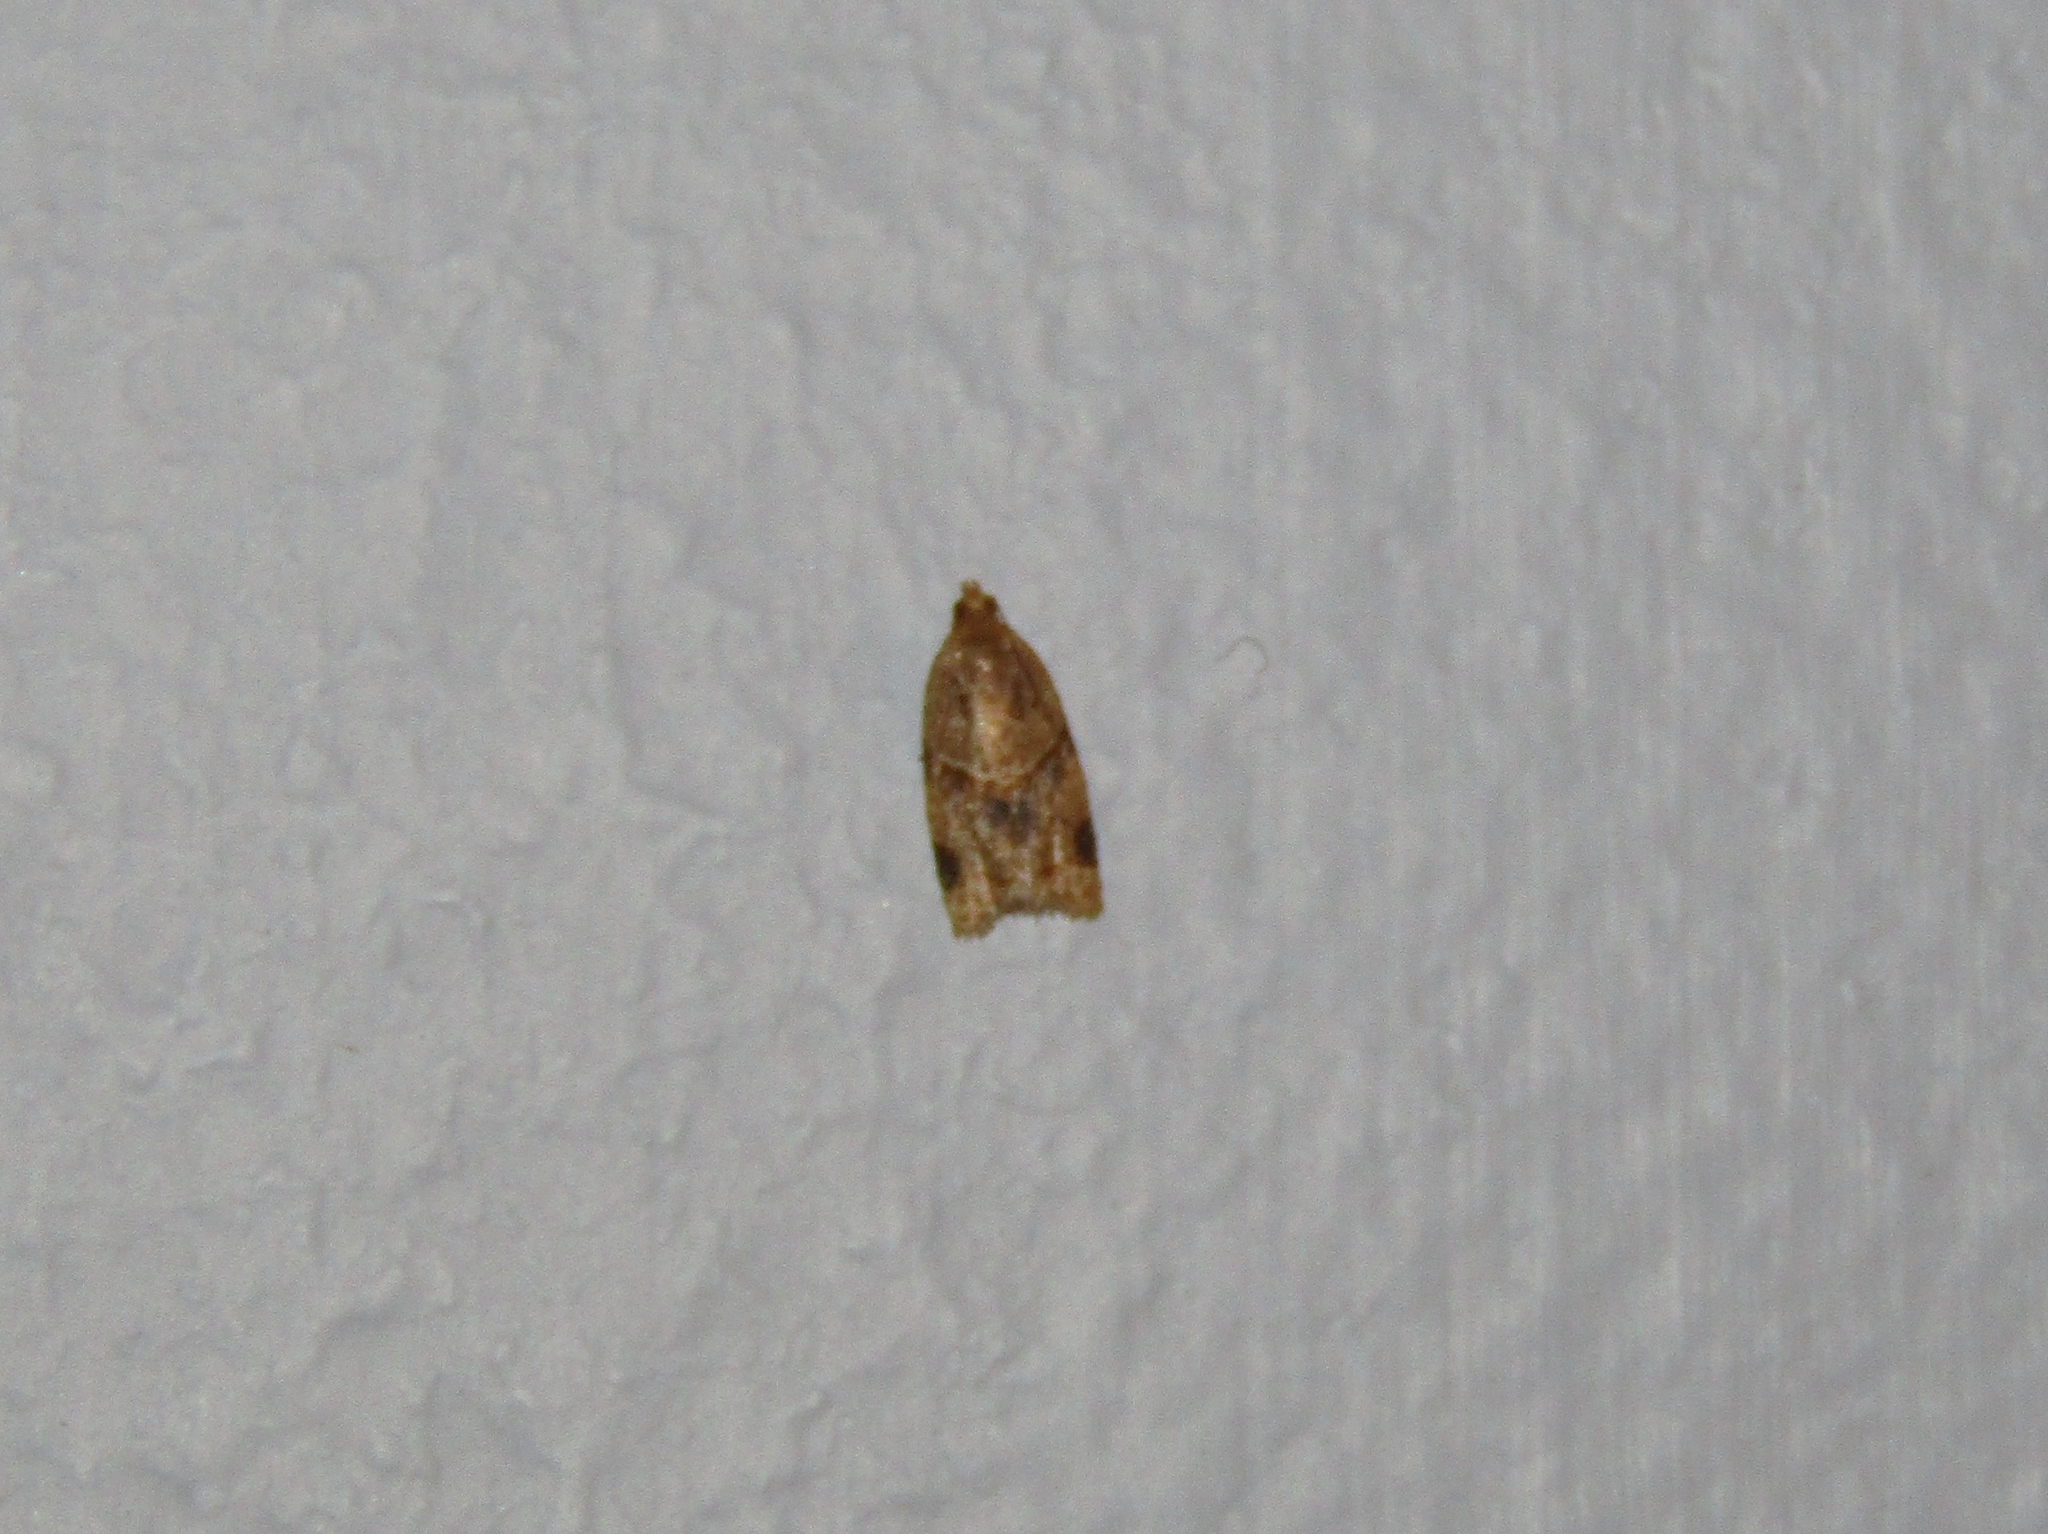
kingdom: Animalia
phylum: Arthropoda
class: Insecta
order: Lepidoptera
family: Tortricidae
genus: Clepsis
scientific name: Clepsis peritana
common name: Garden tortrix
